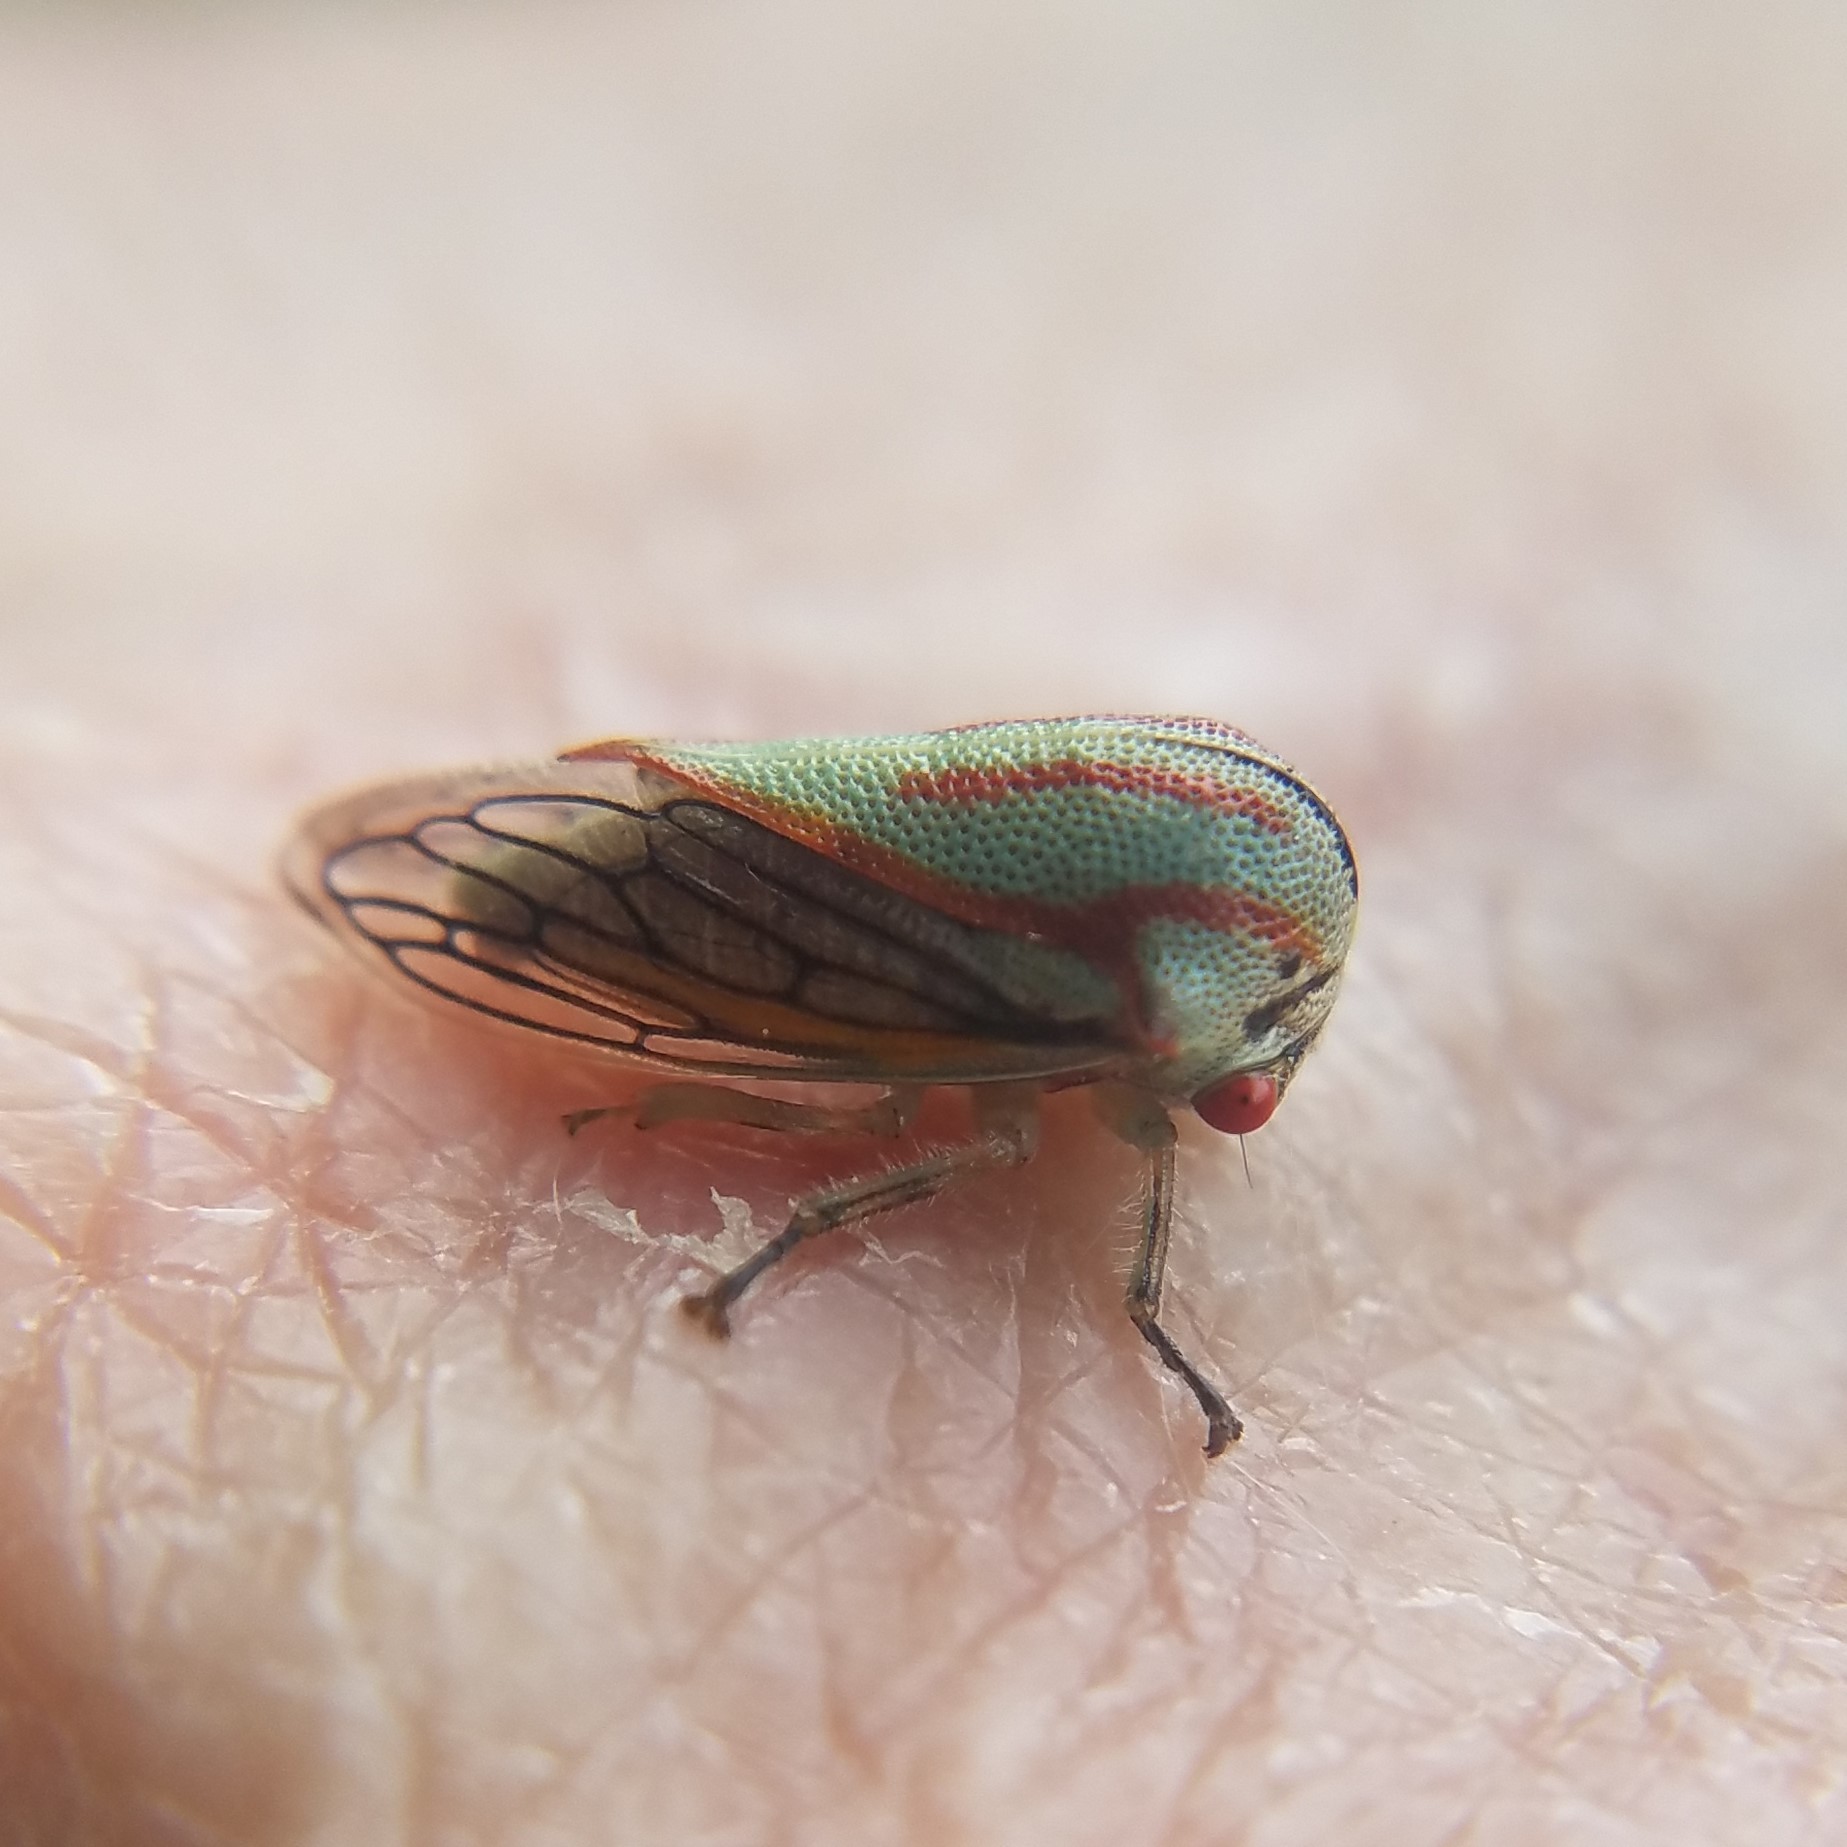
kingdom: Animalia
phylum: Arthropoda
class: Insecta
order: Hemiptera
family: Membracidae
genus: Platycotis
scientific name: Platycotis vittatus
